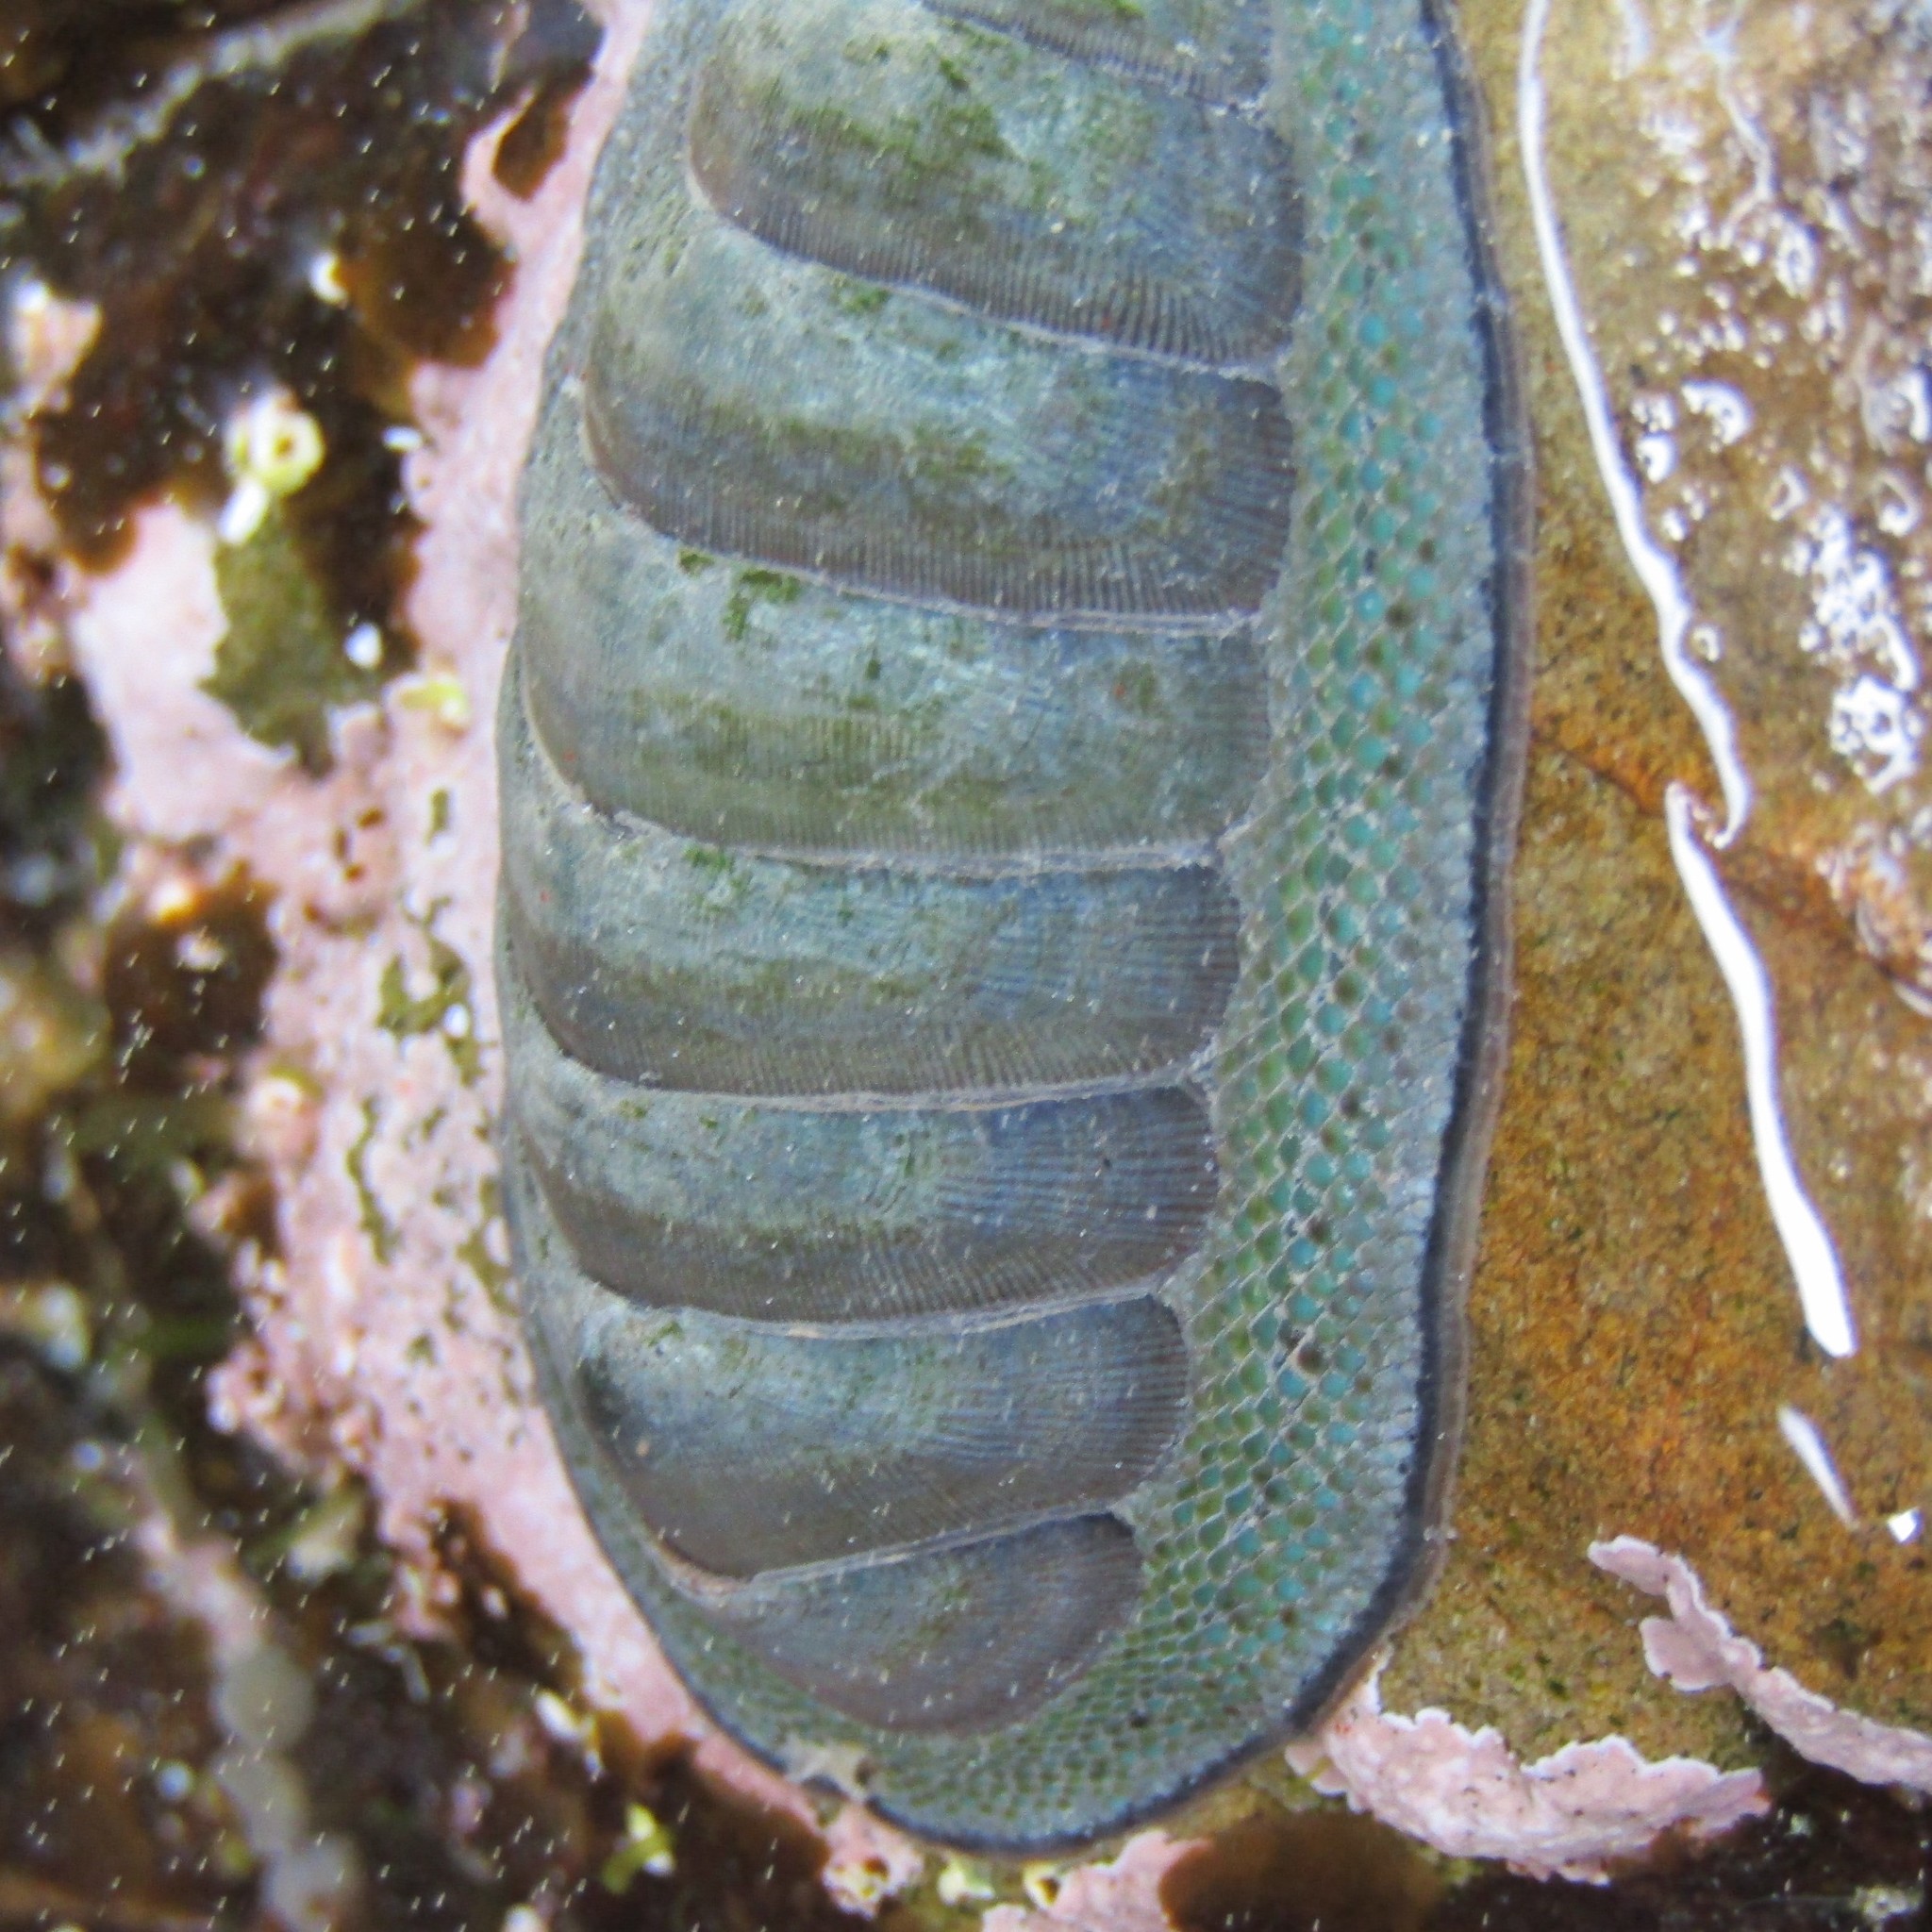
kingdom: Animalia
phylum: Mollusca
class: Polyplacophora
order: Chitonida
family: Chitonidae
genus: Chiton
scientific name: Chiton glaucus
